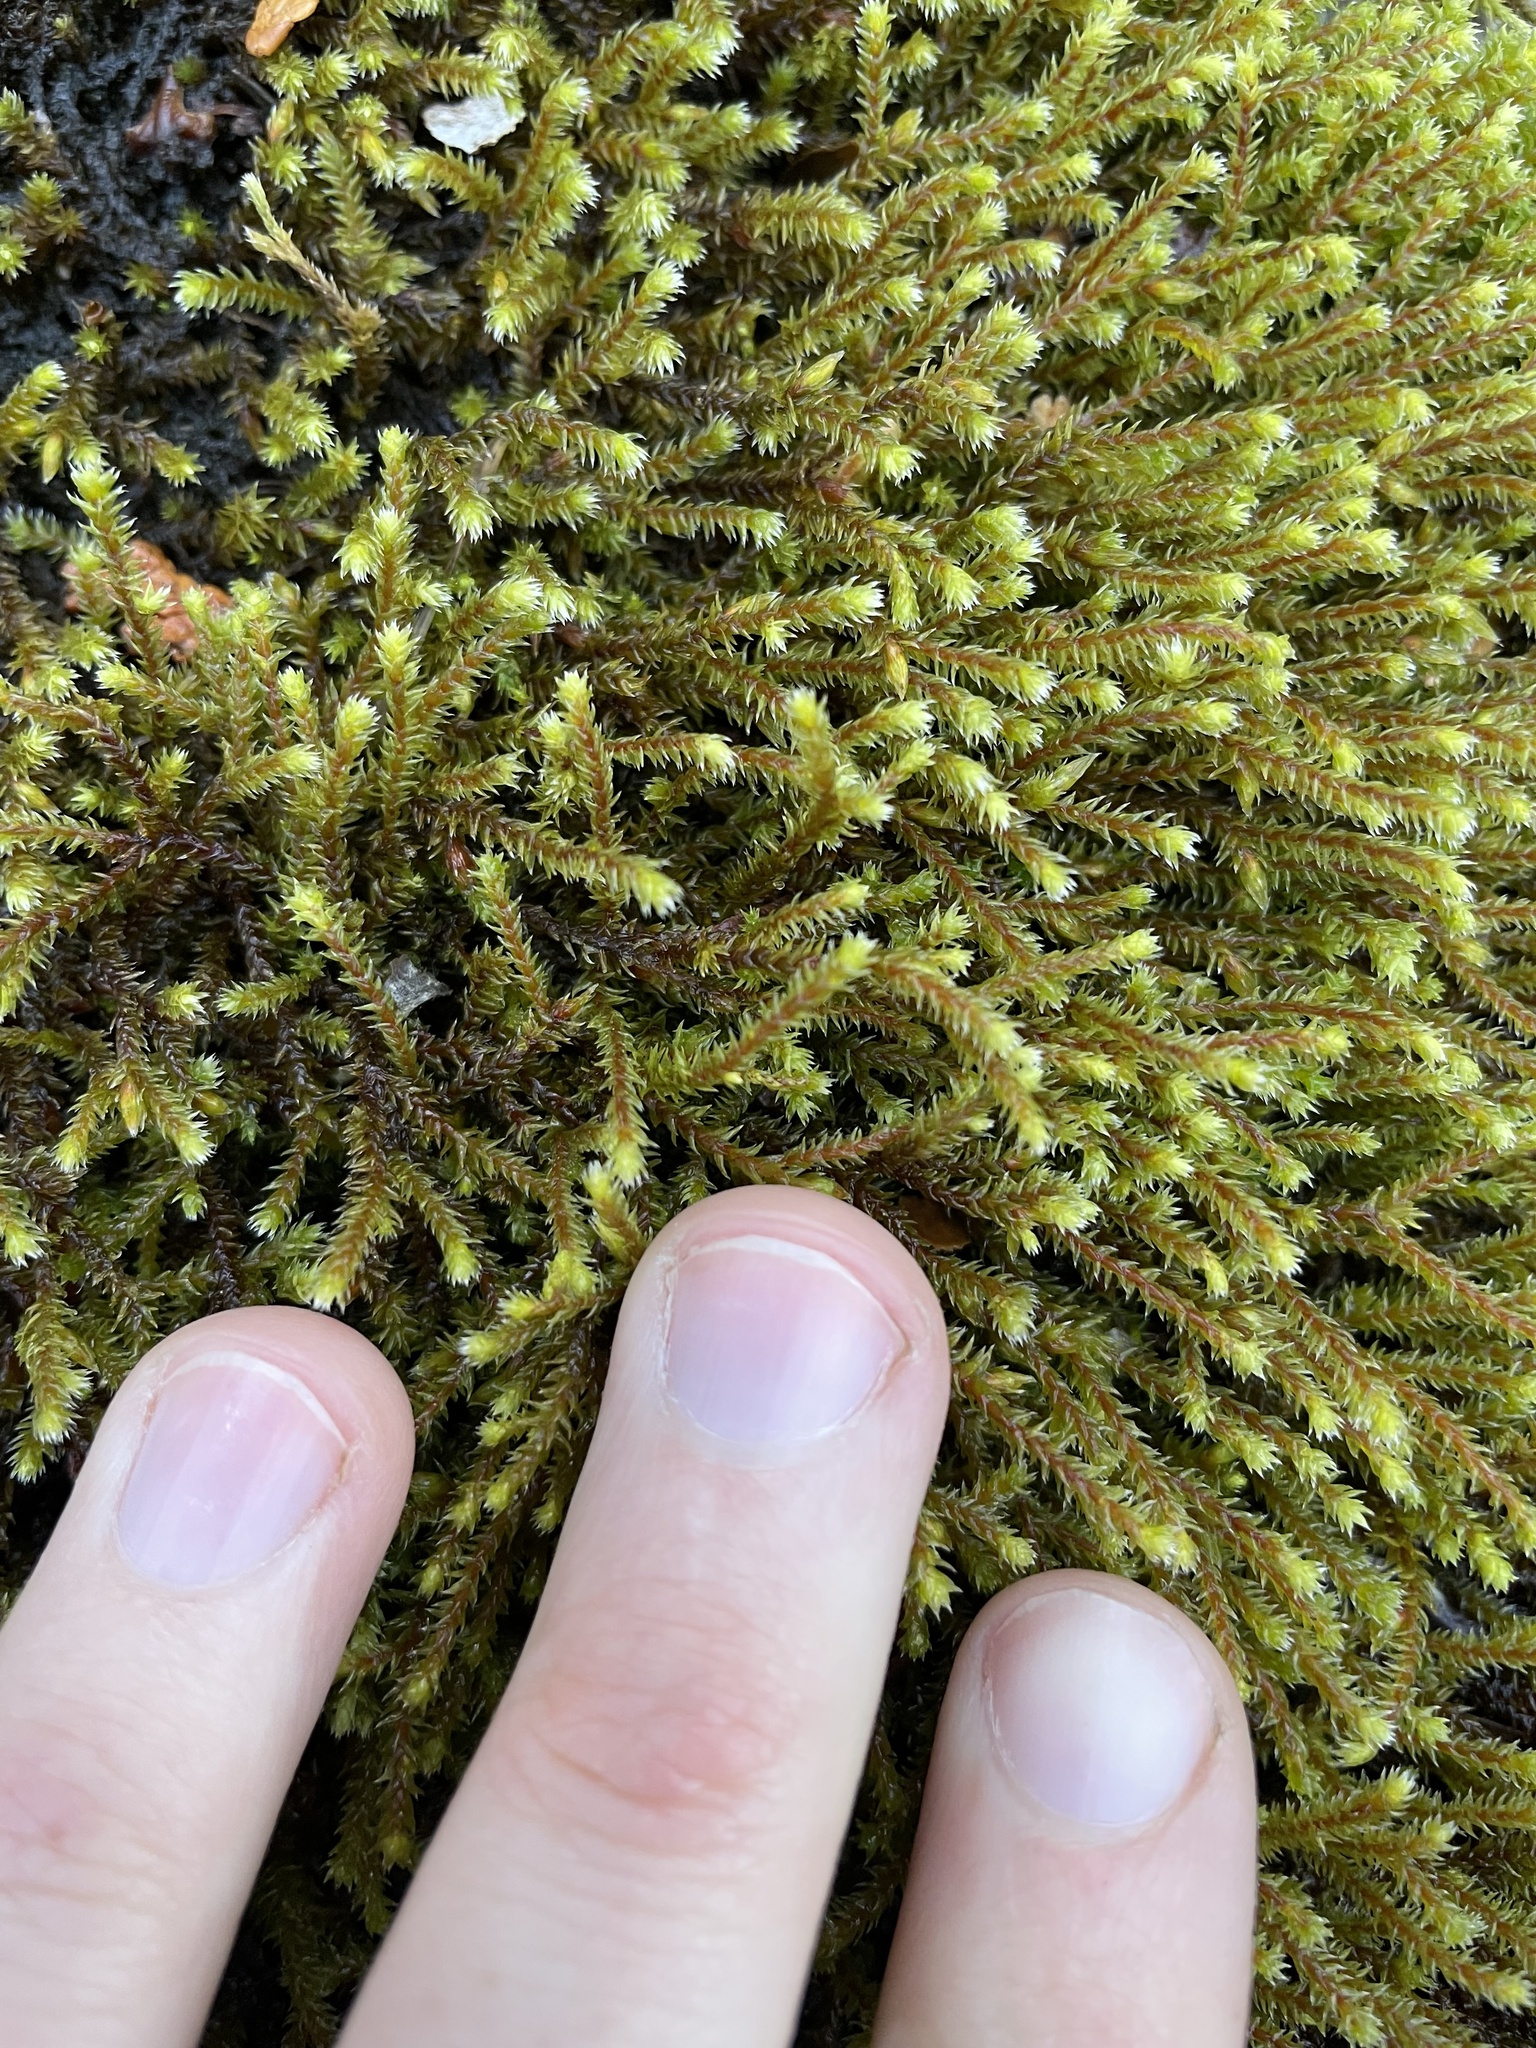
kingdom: Plantae
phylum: Bryophyta
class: Bryopsida
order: Hedwigiales
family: Hedwigiaceae
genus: Hedwigia
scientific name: Hedwigia ciliata
